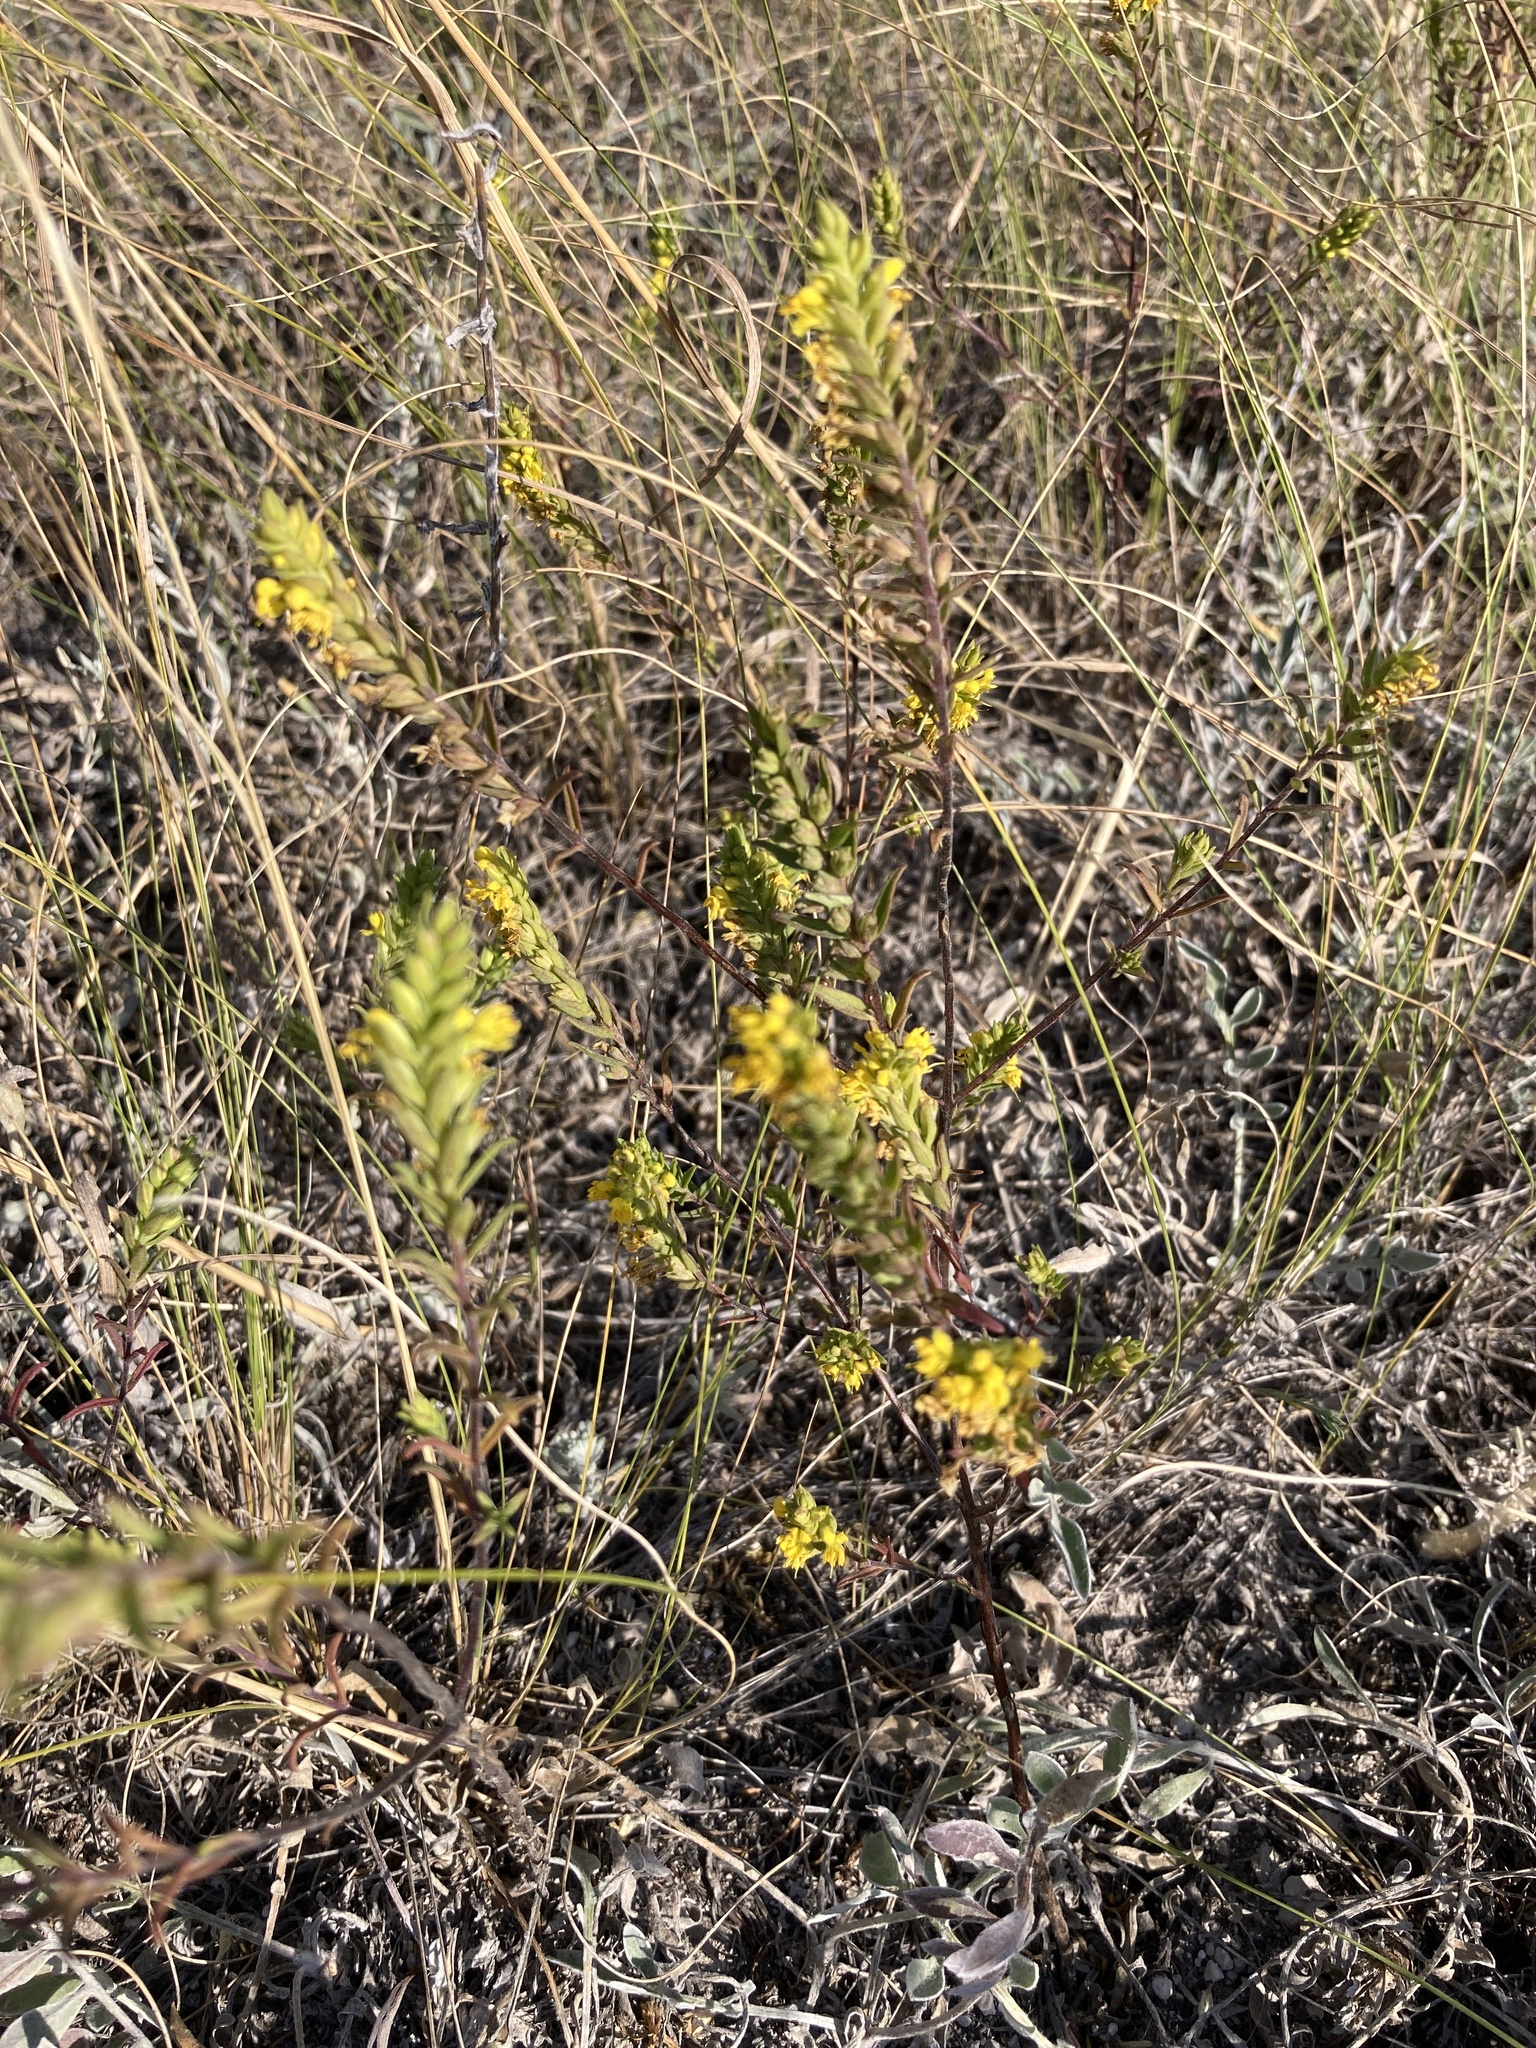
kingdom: Plantae
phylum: Tracheophyta
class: Magnoliopsida
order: Lamiales
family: Orobanchaceae
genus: Odontites
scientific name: Odontites luteus
